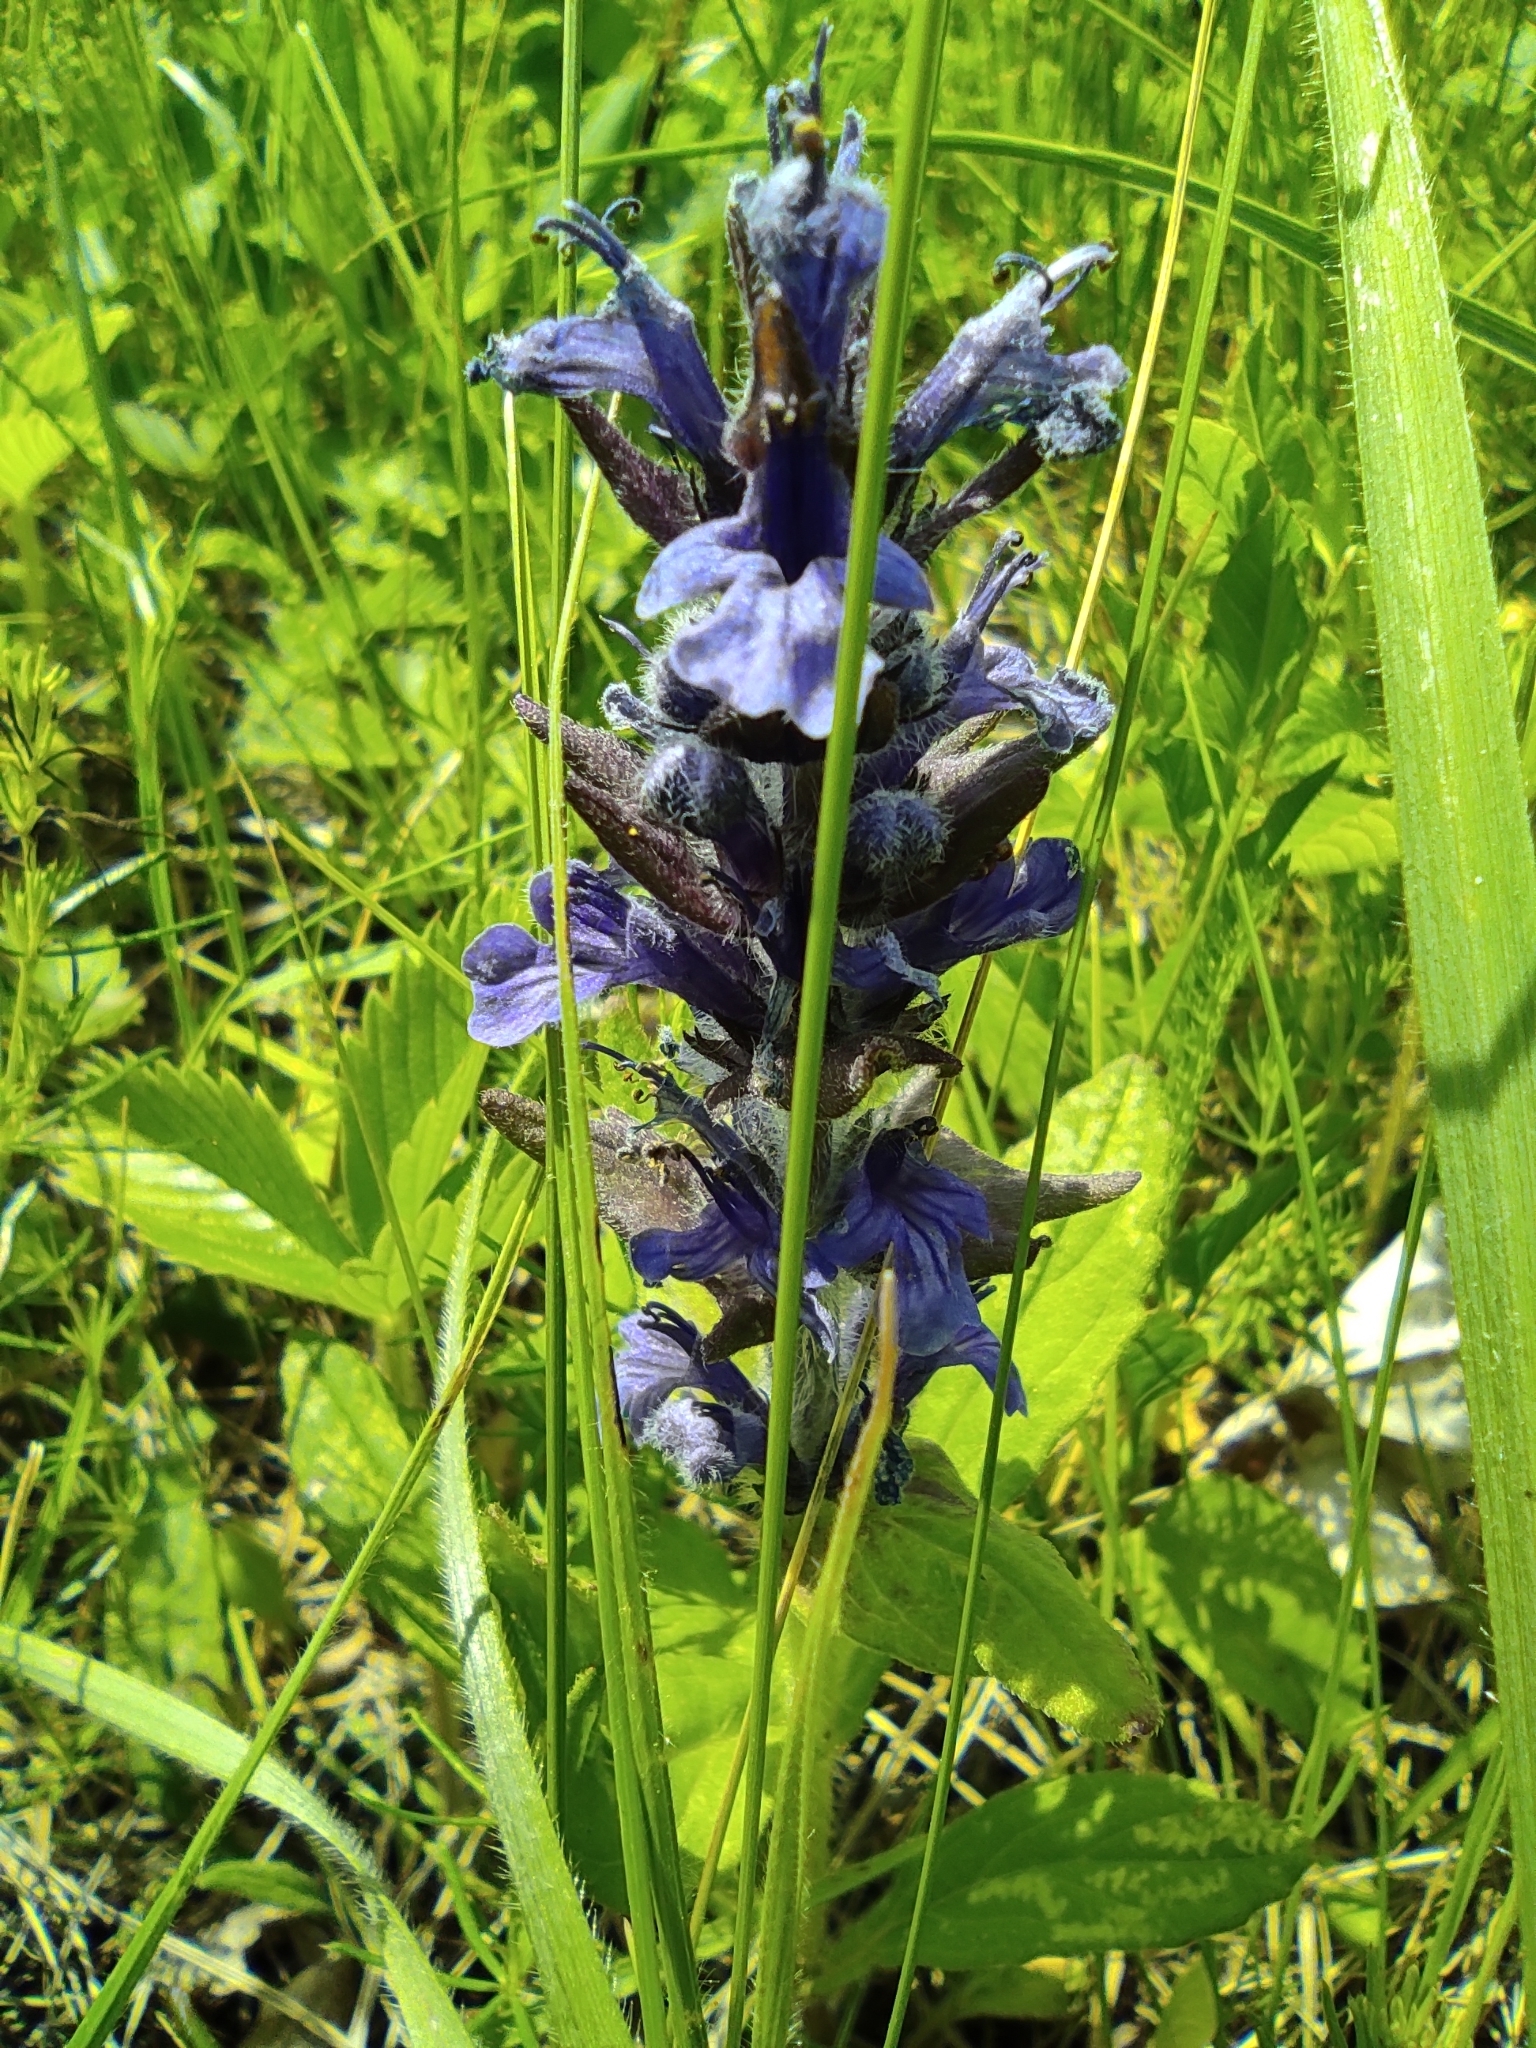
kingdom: Plantae
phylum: Tracheophyta
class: Magnoliopsida
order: Lamiales
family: Lamiaceae
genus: Ajuga
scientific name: Ajuga genevensis
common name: Blue bugle
